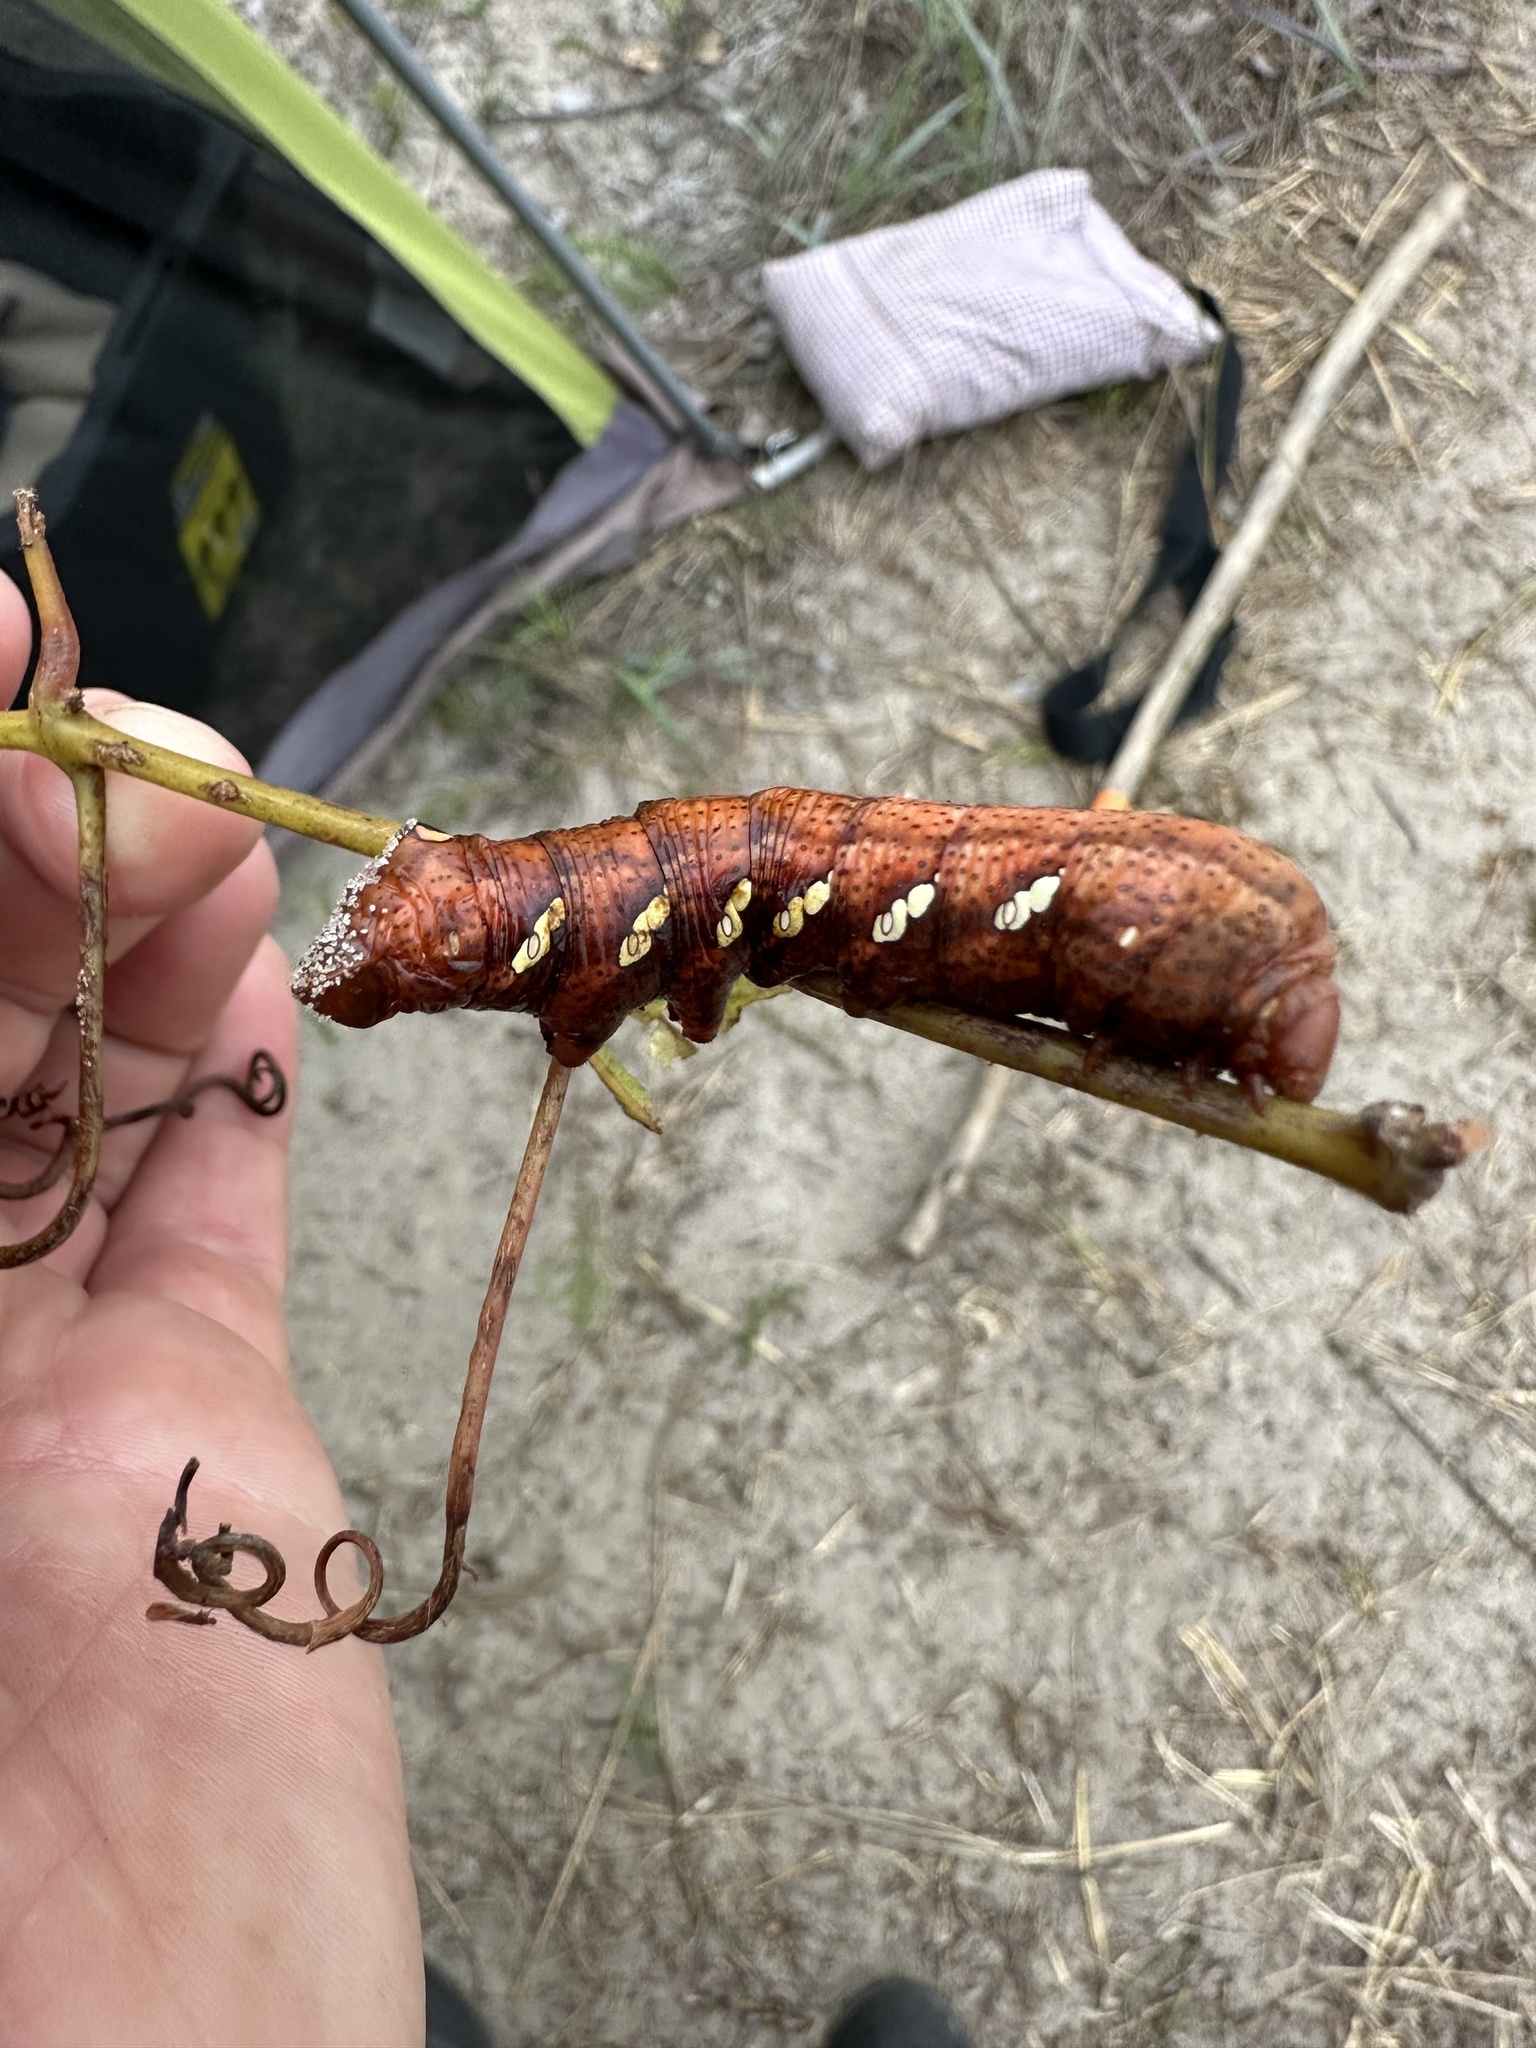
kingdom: Animalia
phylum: Arthropoda
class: Insecta
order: Lepidoptera
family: Sphingidae
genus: Eumorpha
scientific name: Eumorpha achemon
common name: Achemon sphinx
